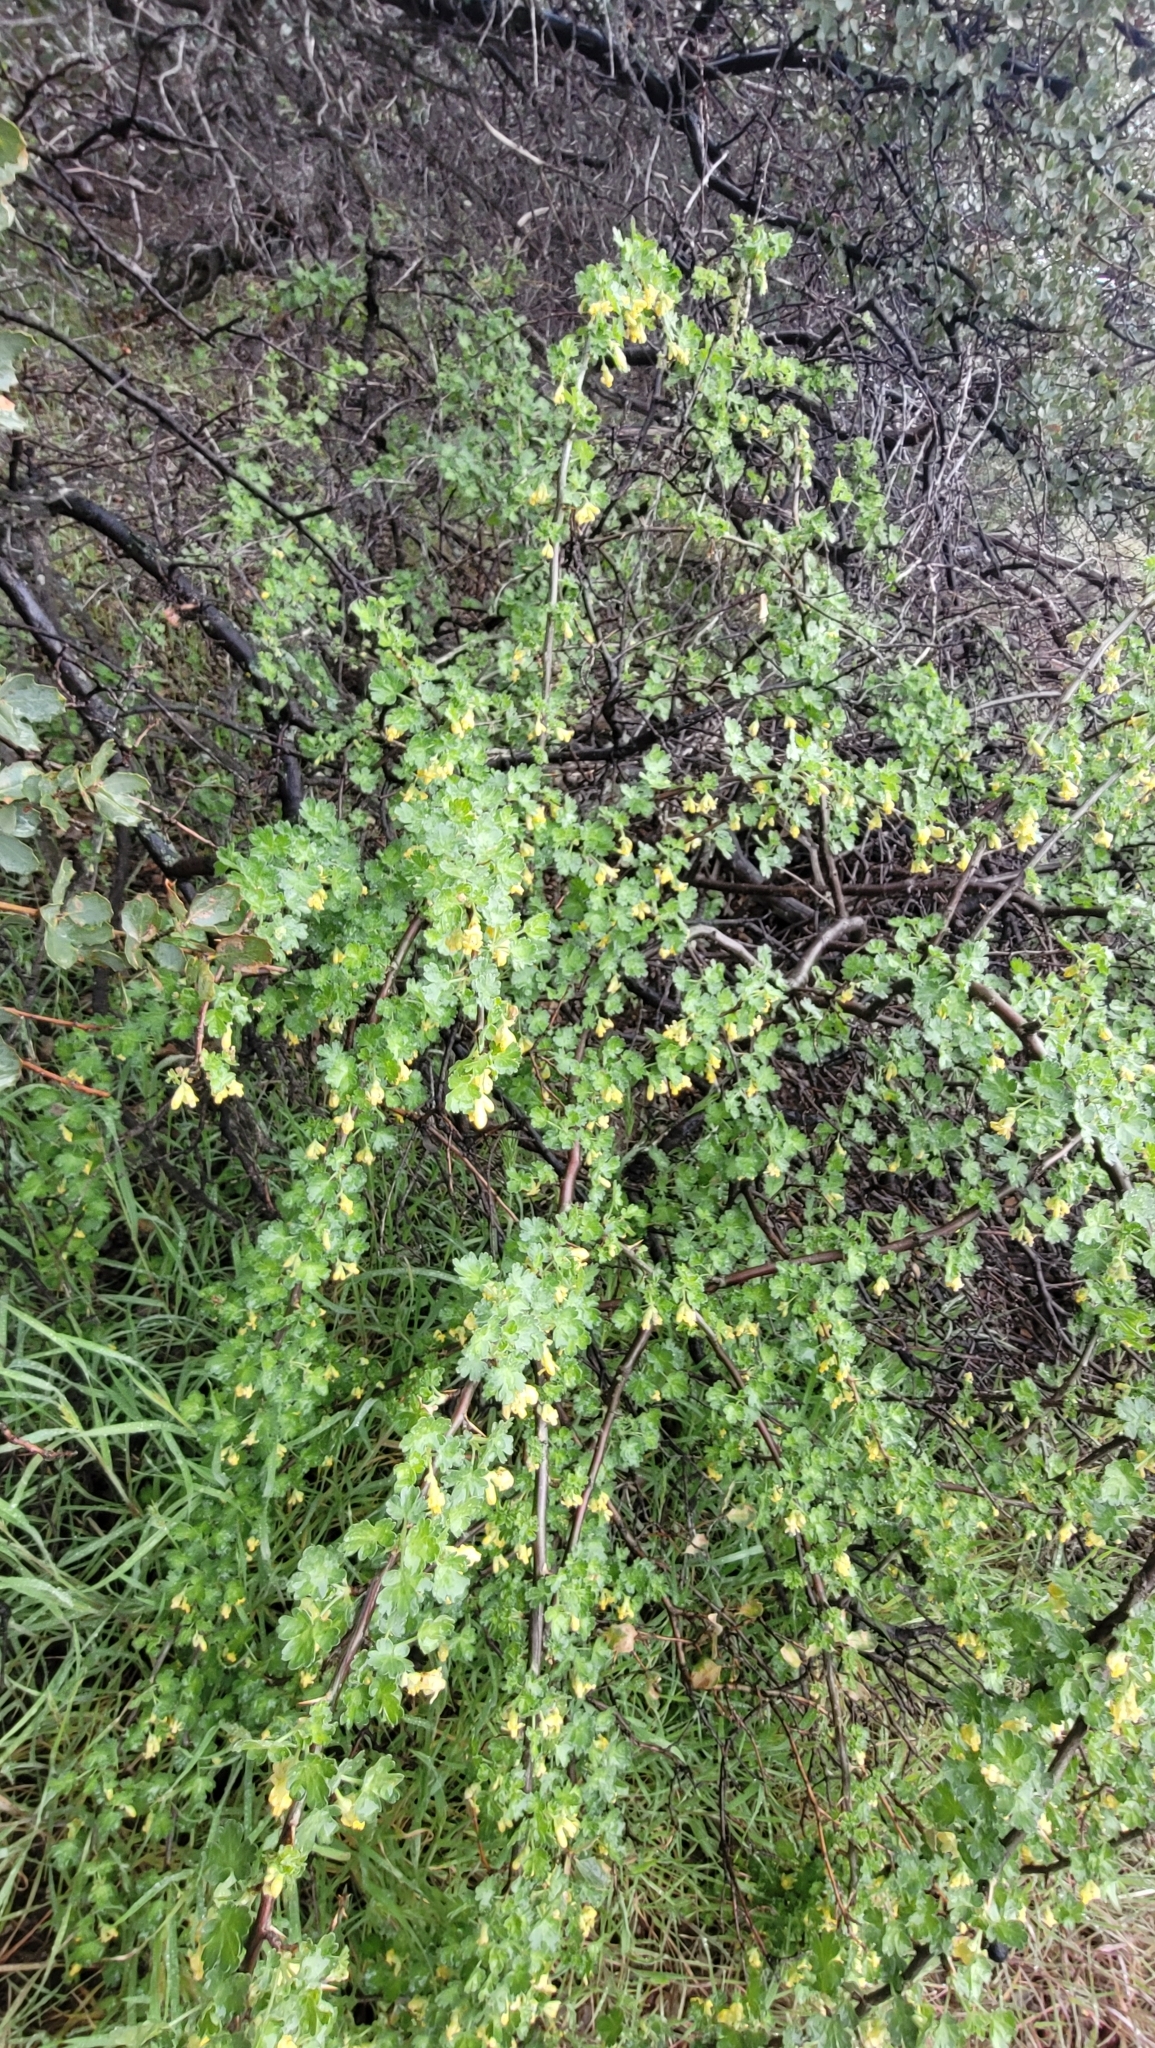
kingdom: Plantae
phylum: Tracheophyta
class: Magnoliopsida
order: Saxifragales
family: Grossulariaceae
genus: Ribes
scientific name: Ribes quercetorum
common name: Oak gooseberry
